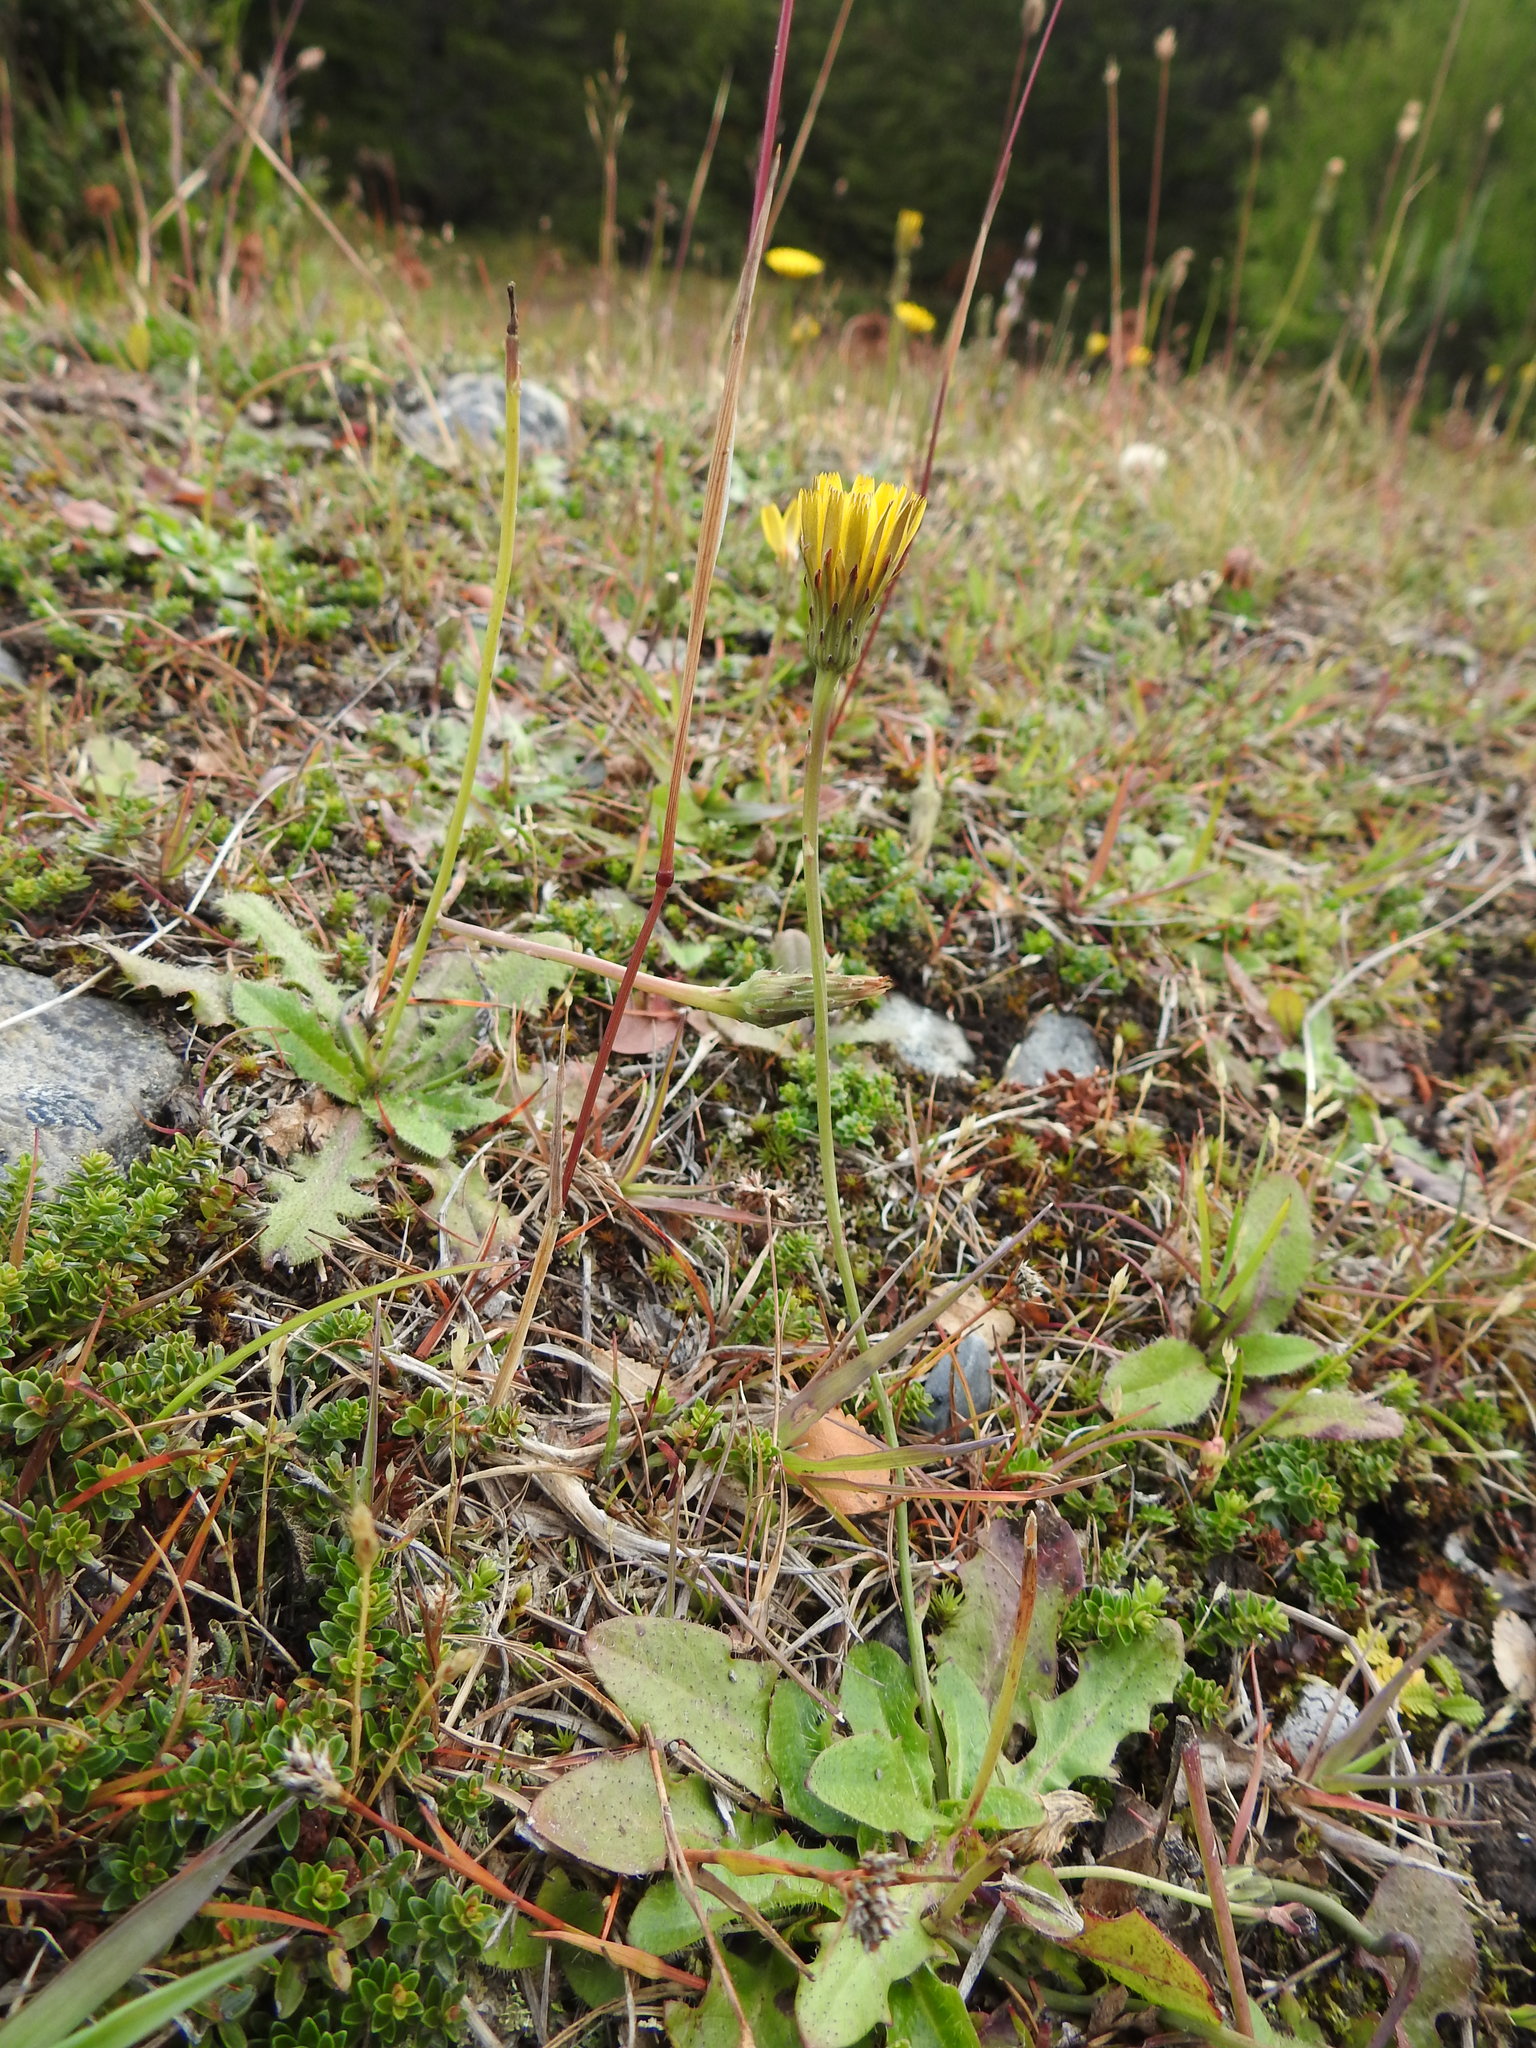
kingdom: Plantae
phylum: Tracheophyta
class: Magnoliopsida
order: Asterales
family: Asteraceae
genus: Hypochaeris
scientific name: Hypochaeris radicata
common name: Flatweed
